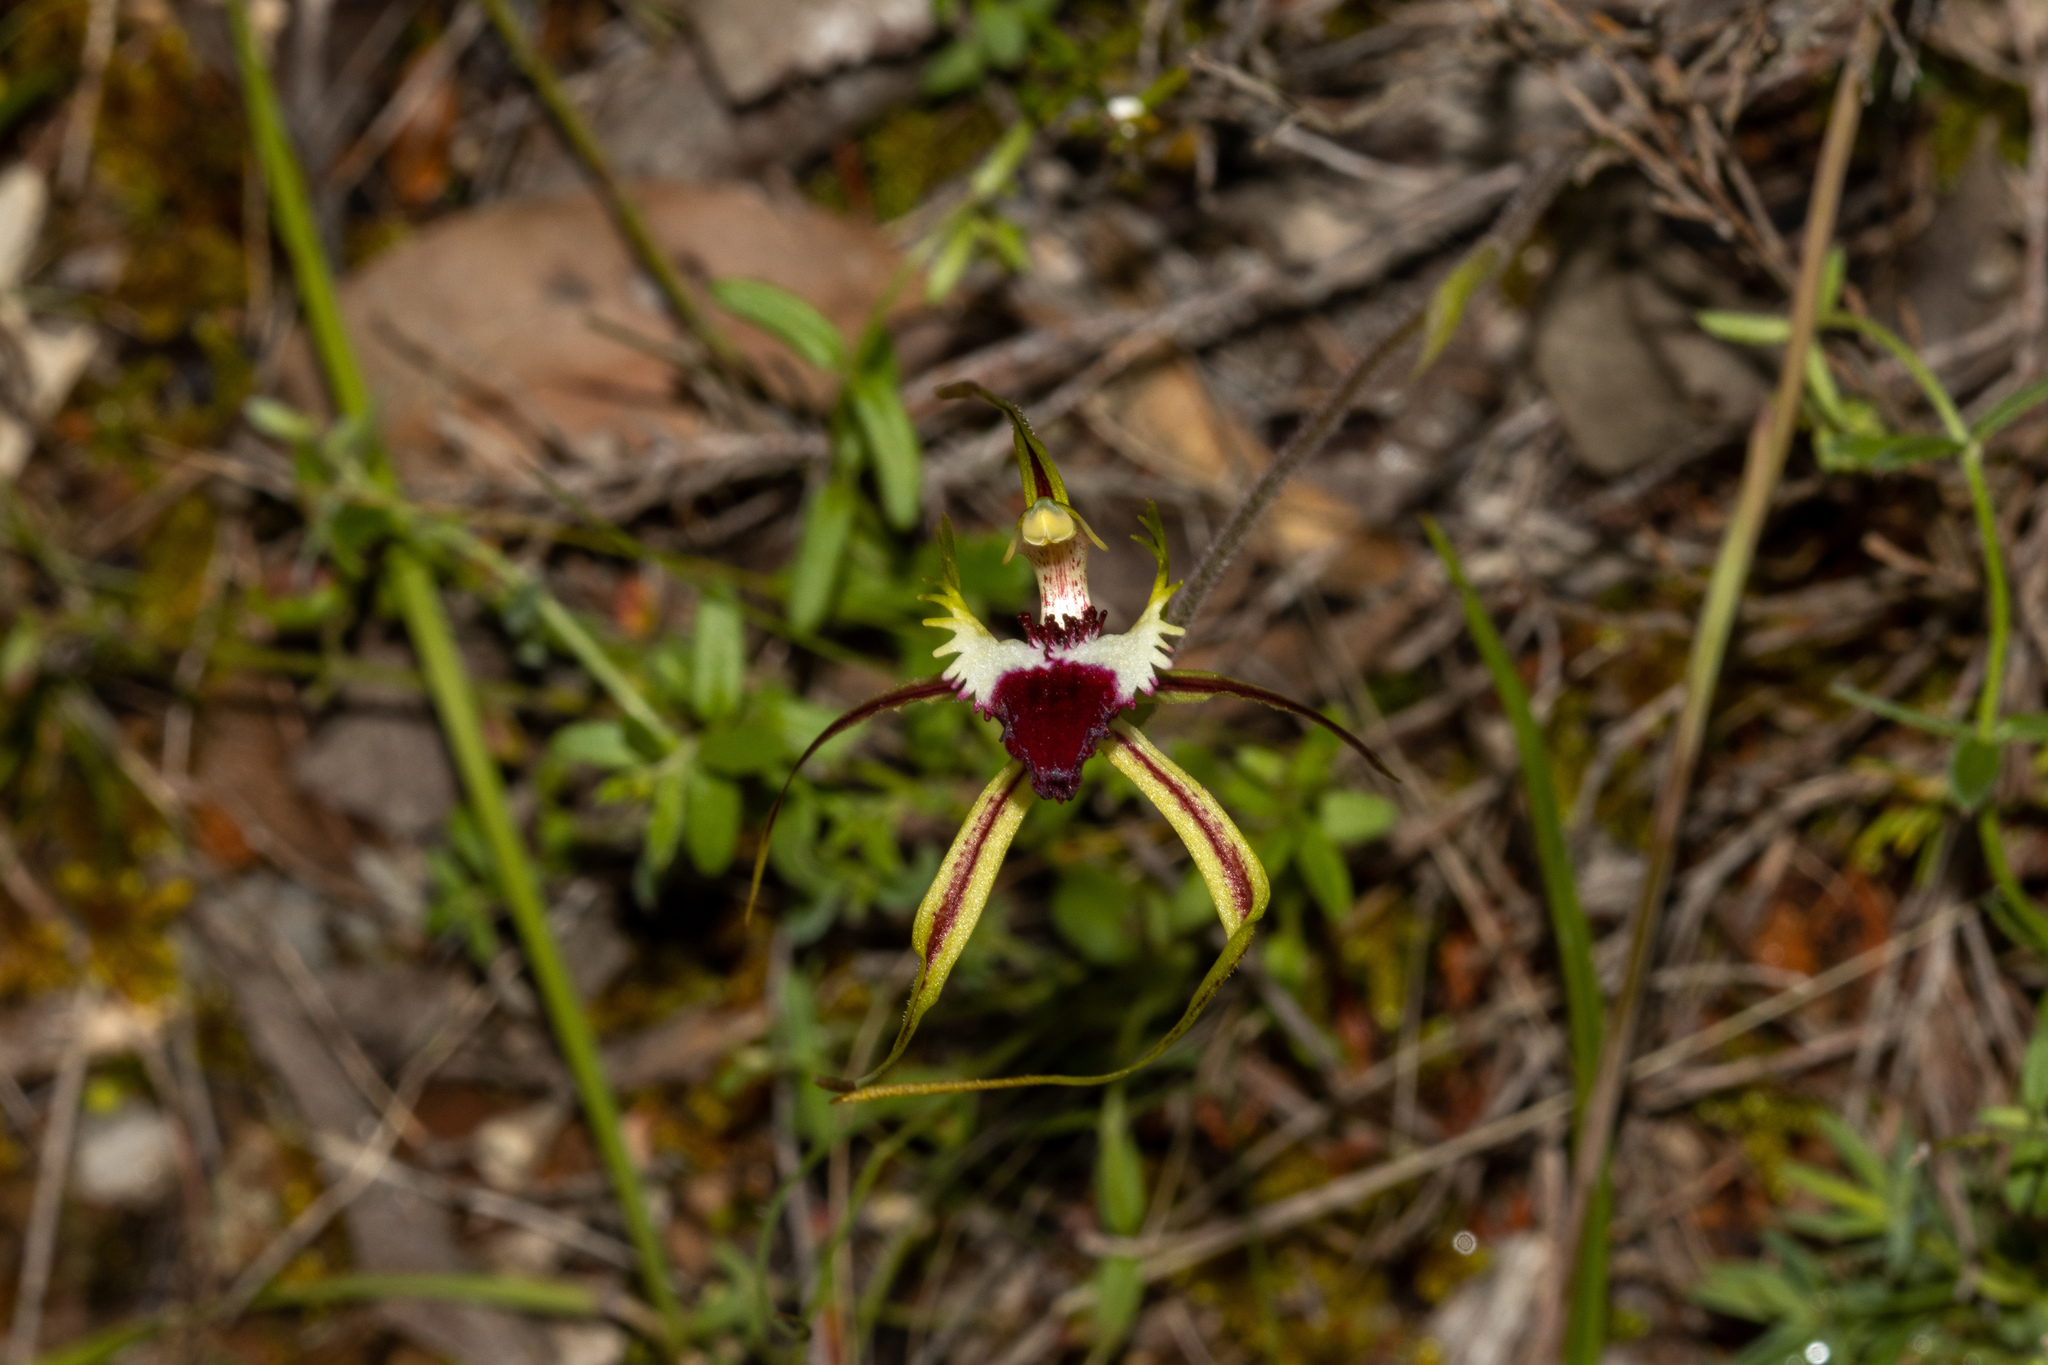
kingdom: Plantae
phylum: Tracheophyta
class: Liliopsida
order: Asparagales
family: Orchidaceae
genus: Caladenia
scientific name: Caladenia tentaculata
